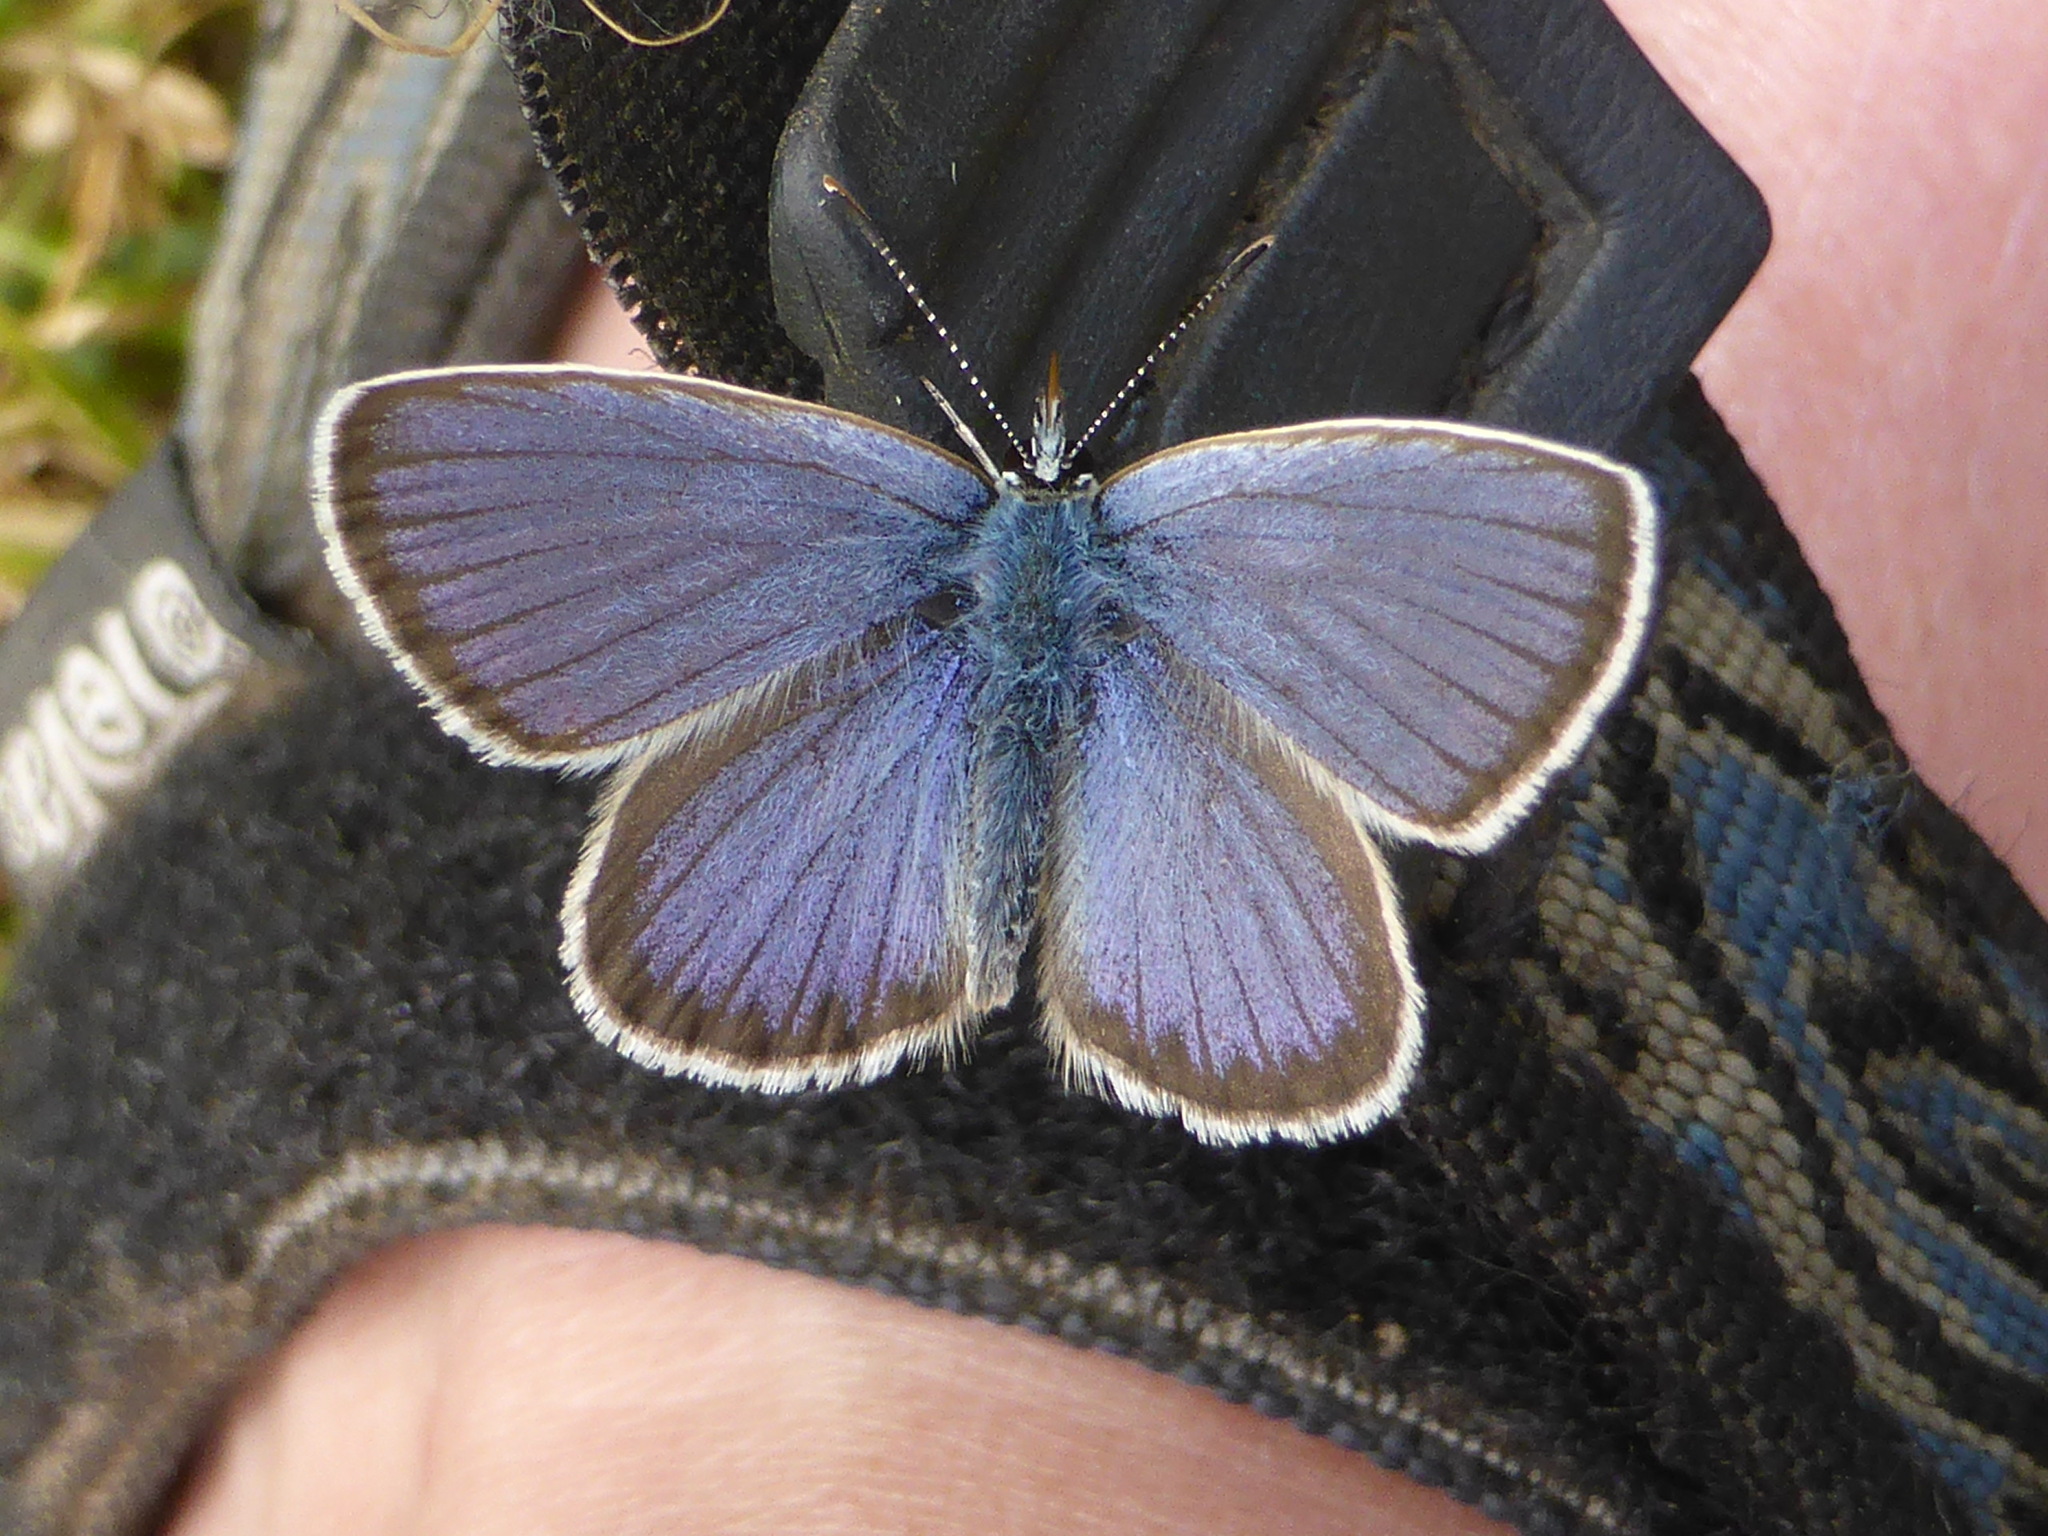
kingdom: Animalia
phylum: Arthropoda
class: Insecta
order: Lepidoptera
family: Lycaenidae
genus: Lycaeides
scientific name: Lycaeides idas
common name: Northern blue
